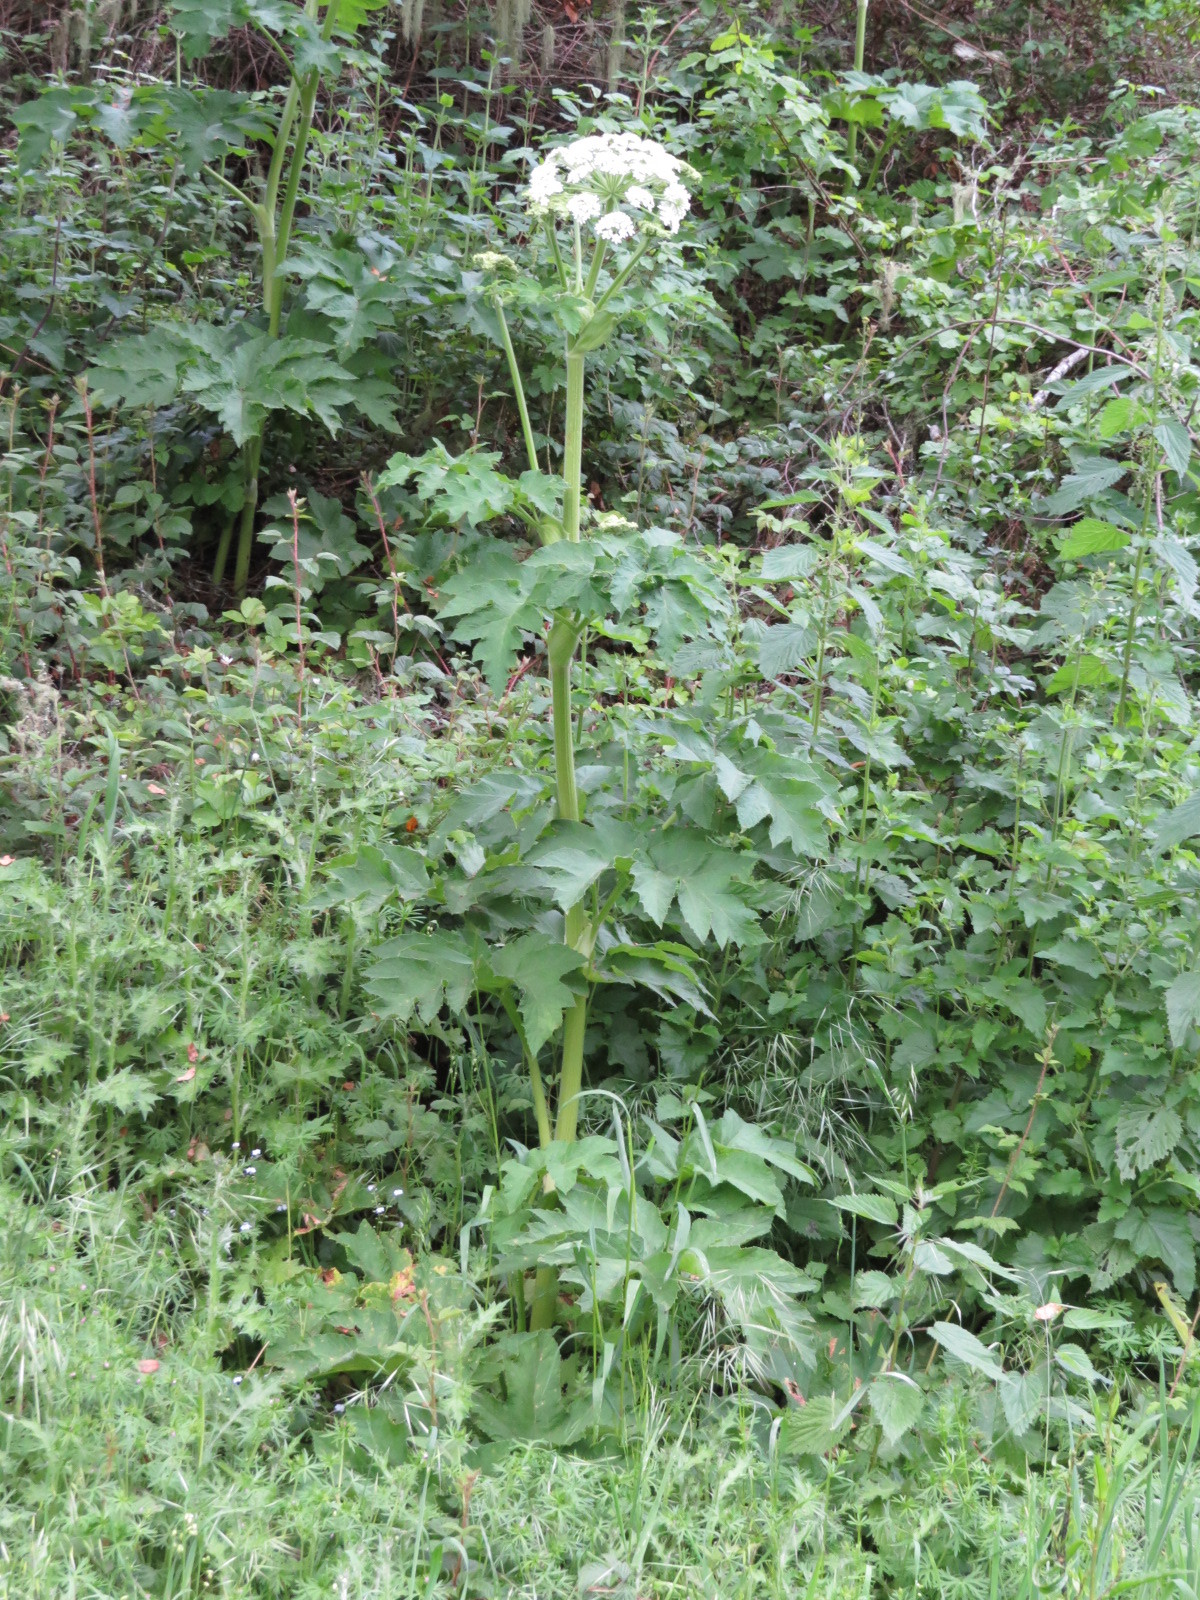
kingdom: Plantae
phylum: Tracheophyta
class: Magnoliopsida
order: Apiales
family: Apiaceae
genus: Heracleum
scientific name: Heracleum maximum
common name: American cow parsnip
